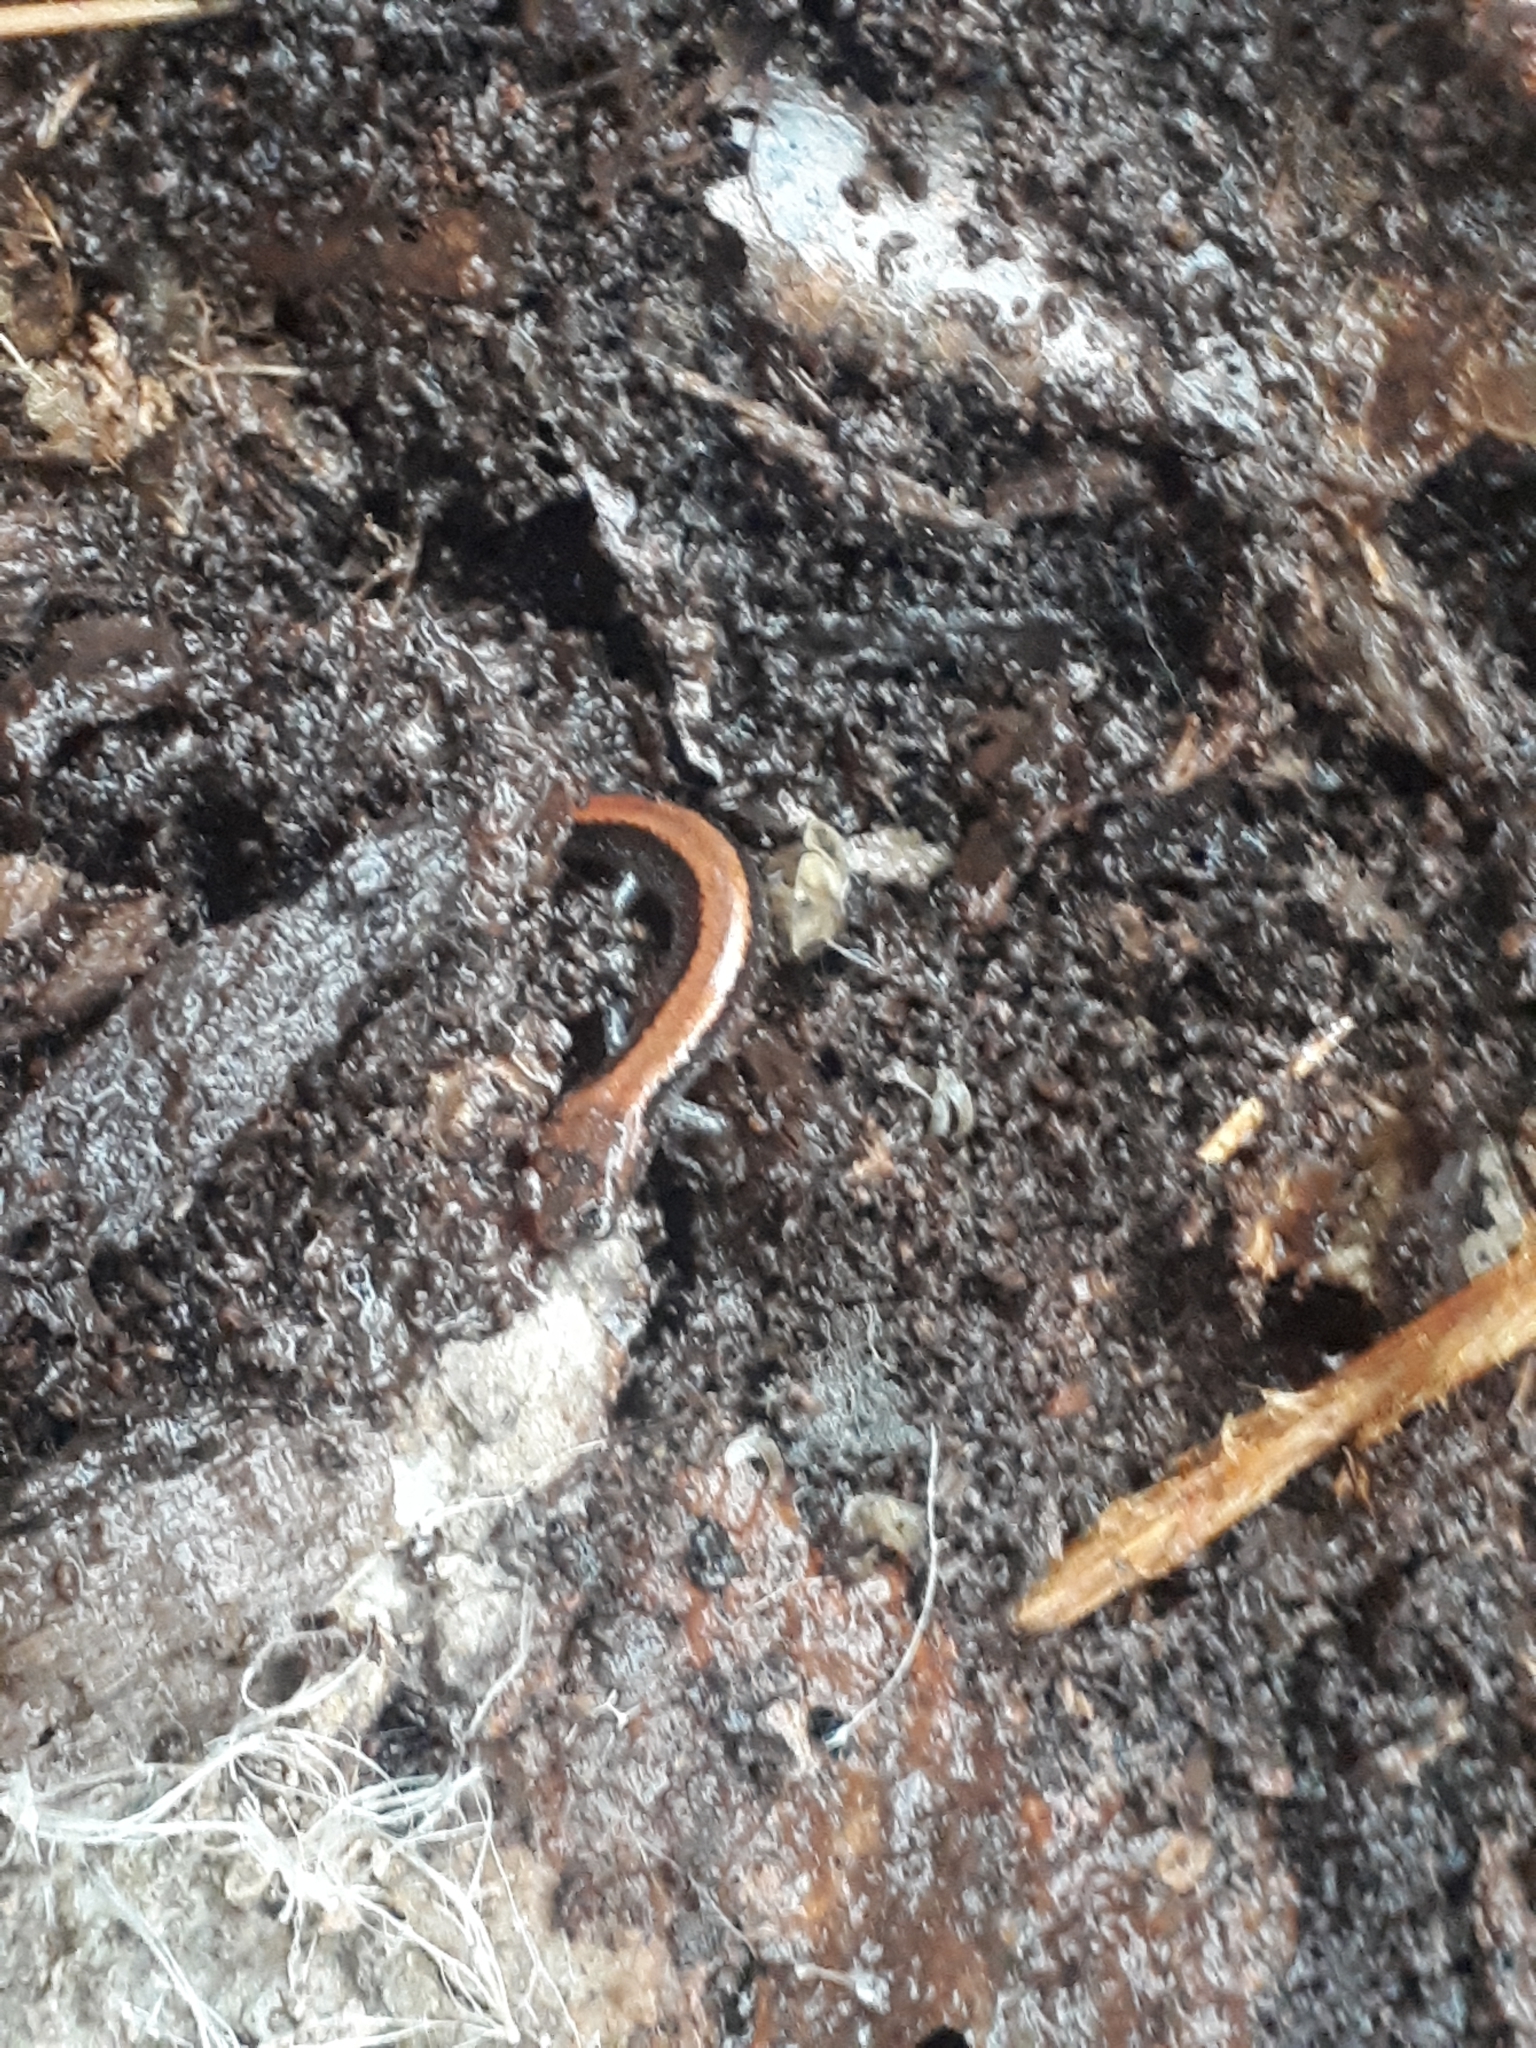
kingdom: Animalia
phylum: Chordata
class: Amphibia
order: Caudata
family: Plethodontidae
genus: Plethodon
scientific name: Plethodon cinereus
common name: Redback salamander
